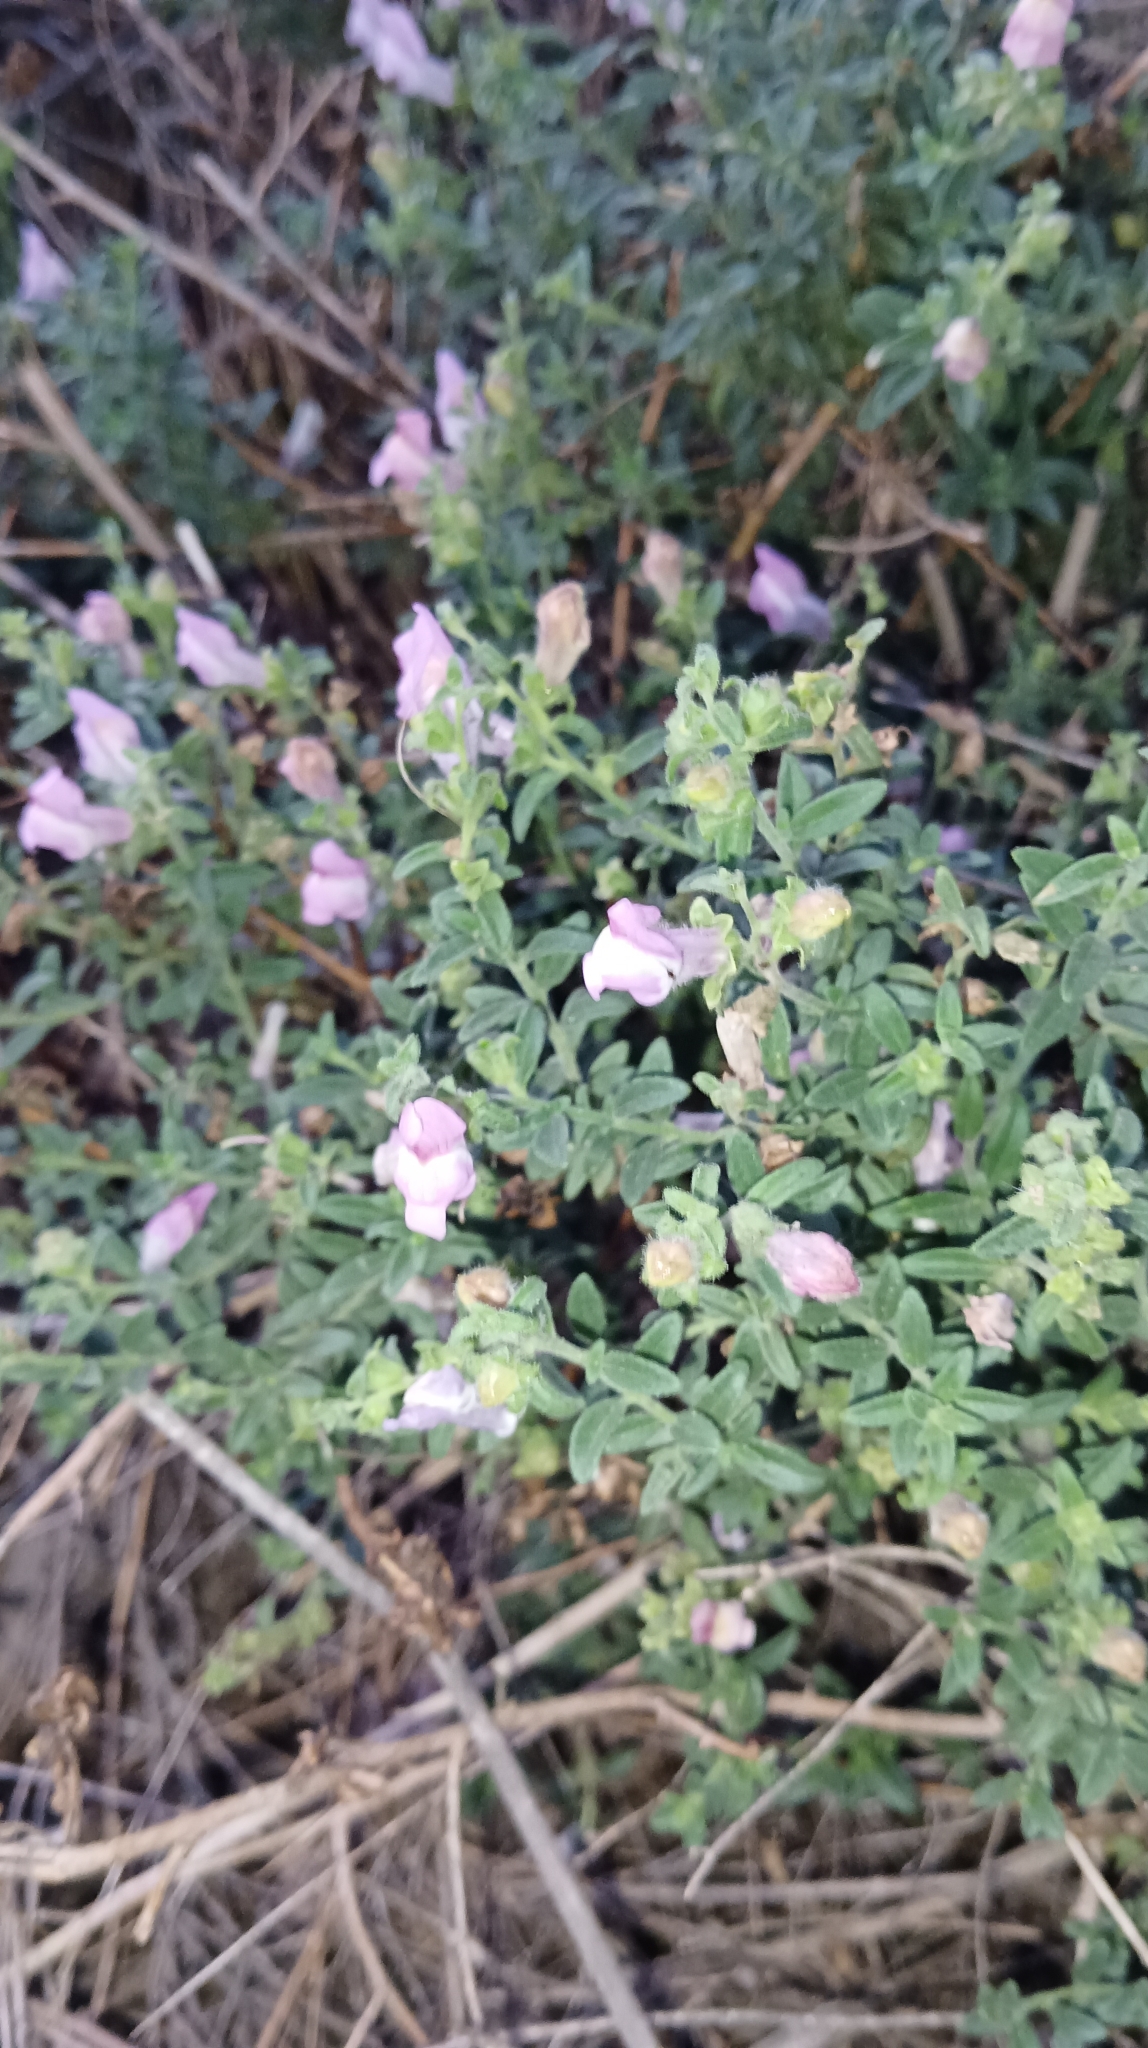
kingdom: Plantae
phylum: Tracheophyta
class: Magnoliopsida
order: Lamiales
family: Plantaginaceae
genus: Antirrhinum
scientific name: Antirrhinum hispanicum
